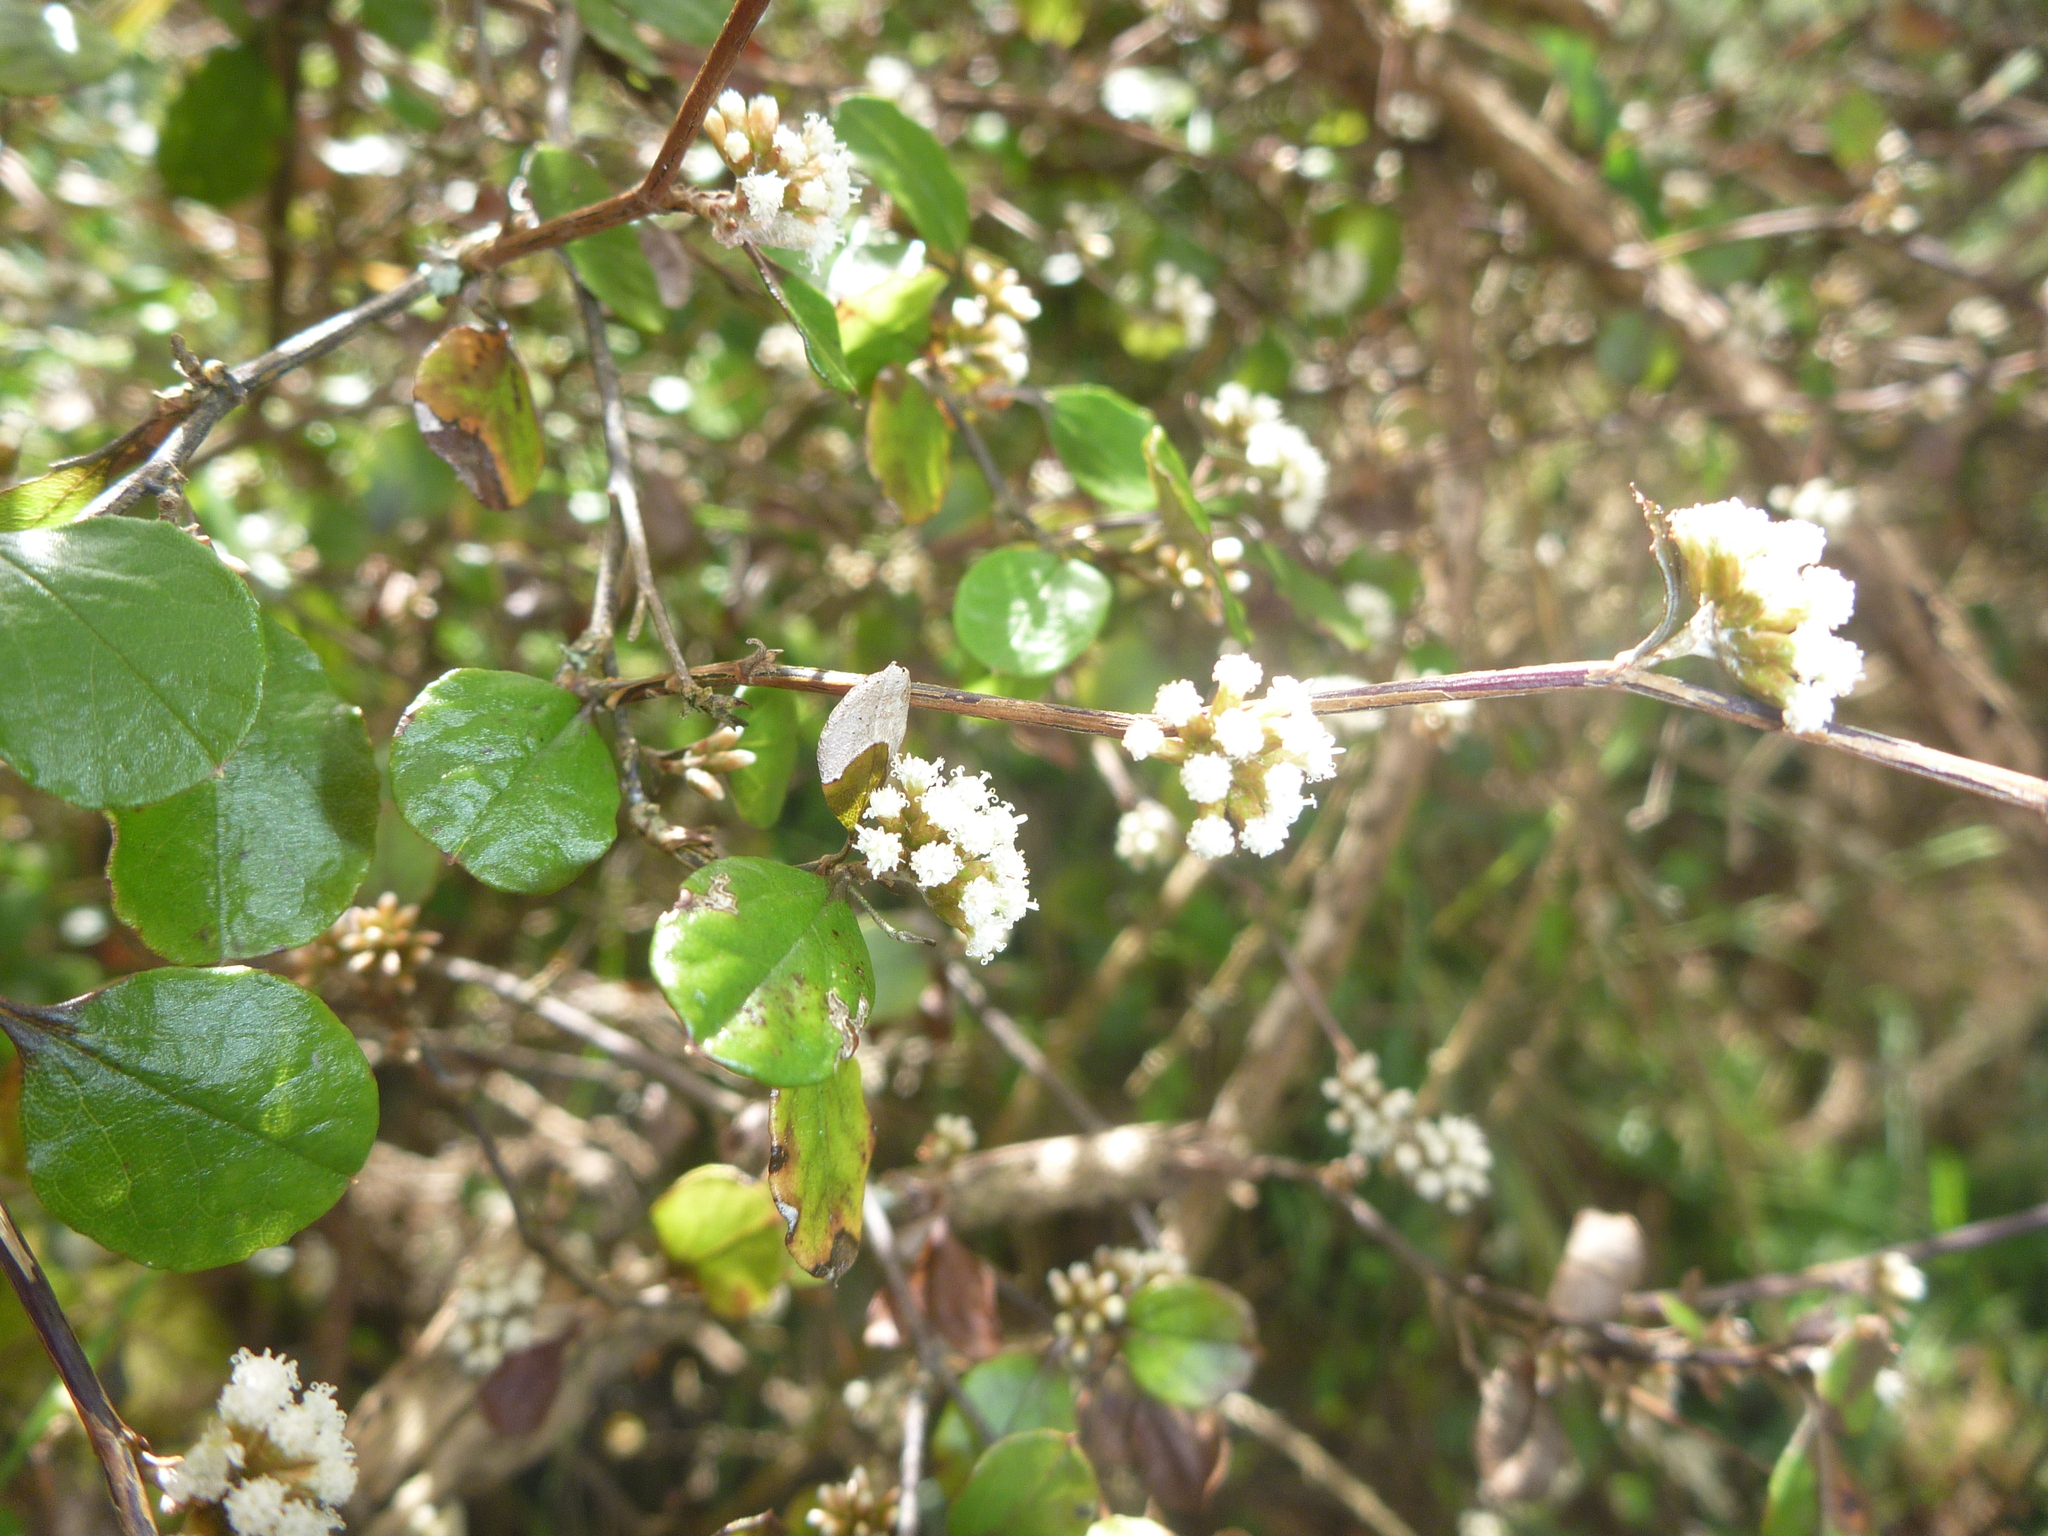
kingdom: Plantae
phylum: Tracheophyta
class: Magnoliopsida
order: Asterales
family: Asteraceae
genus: Ozothamnus
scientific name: Ozothamnus glomeratus
